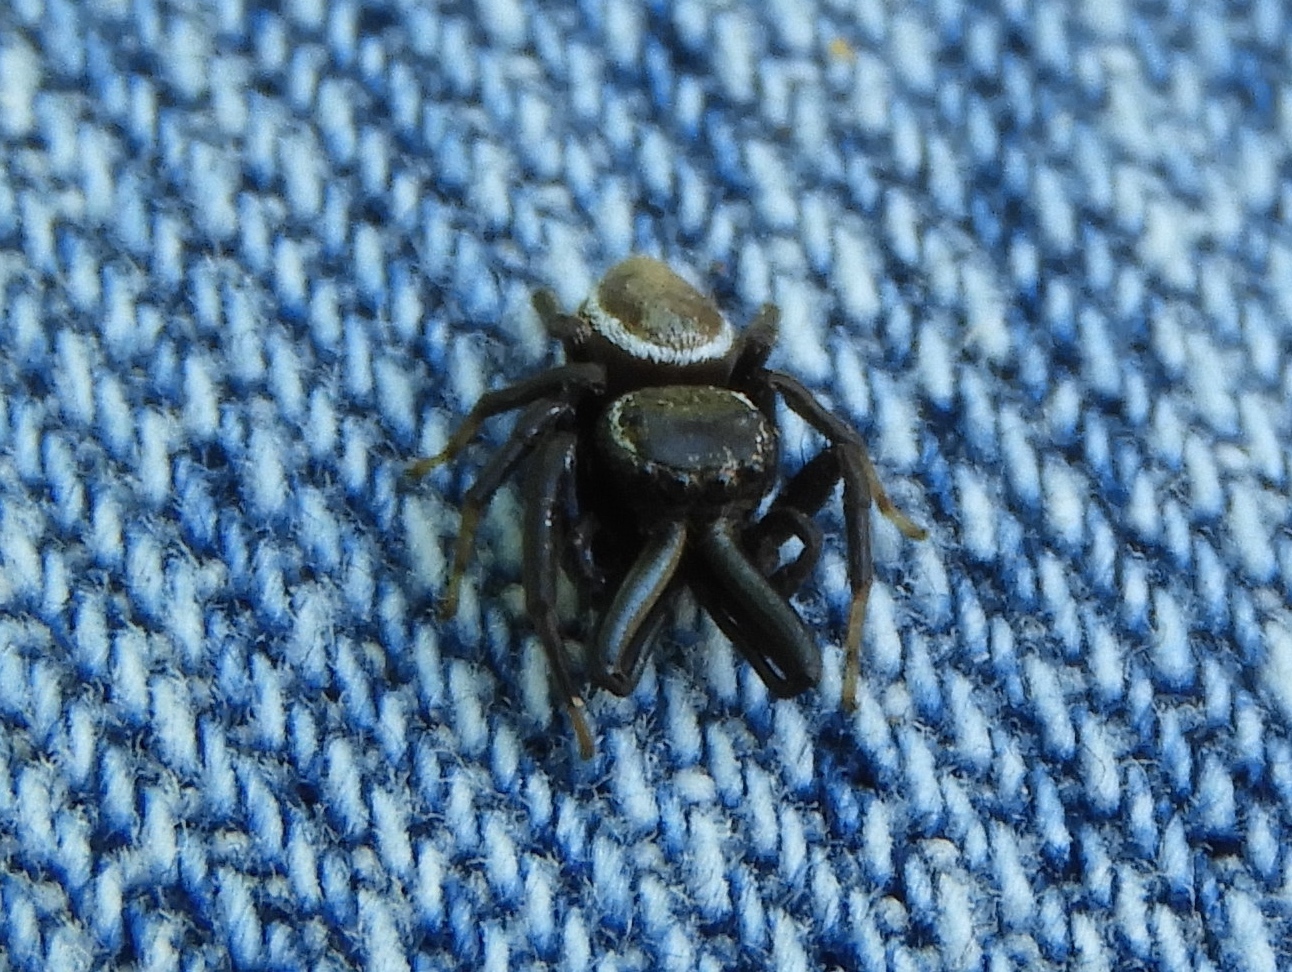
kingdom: Animalia
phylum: Arthropoda
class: Arachnida
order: Araneae
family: Salticidae
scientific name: Salticidae
